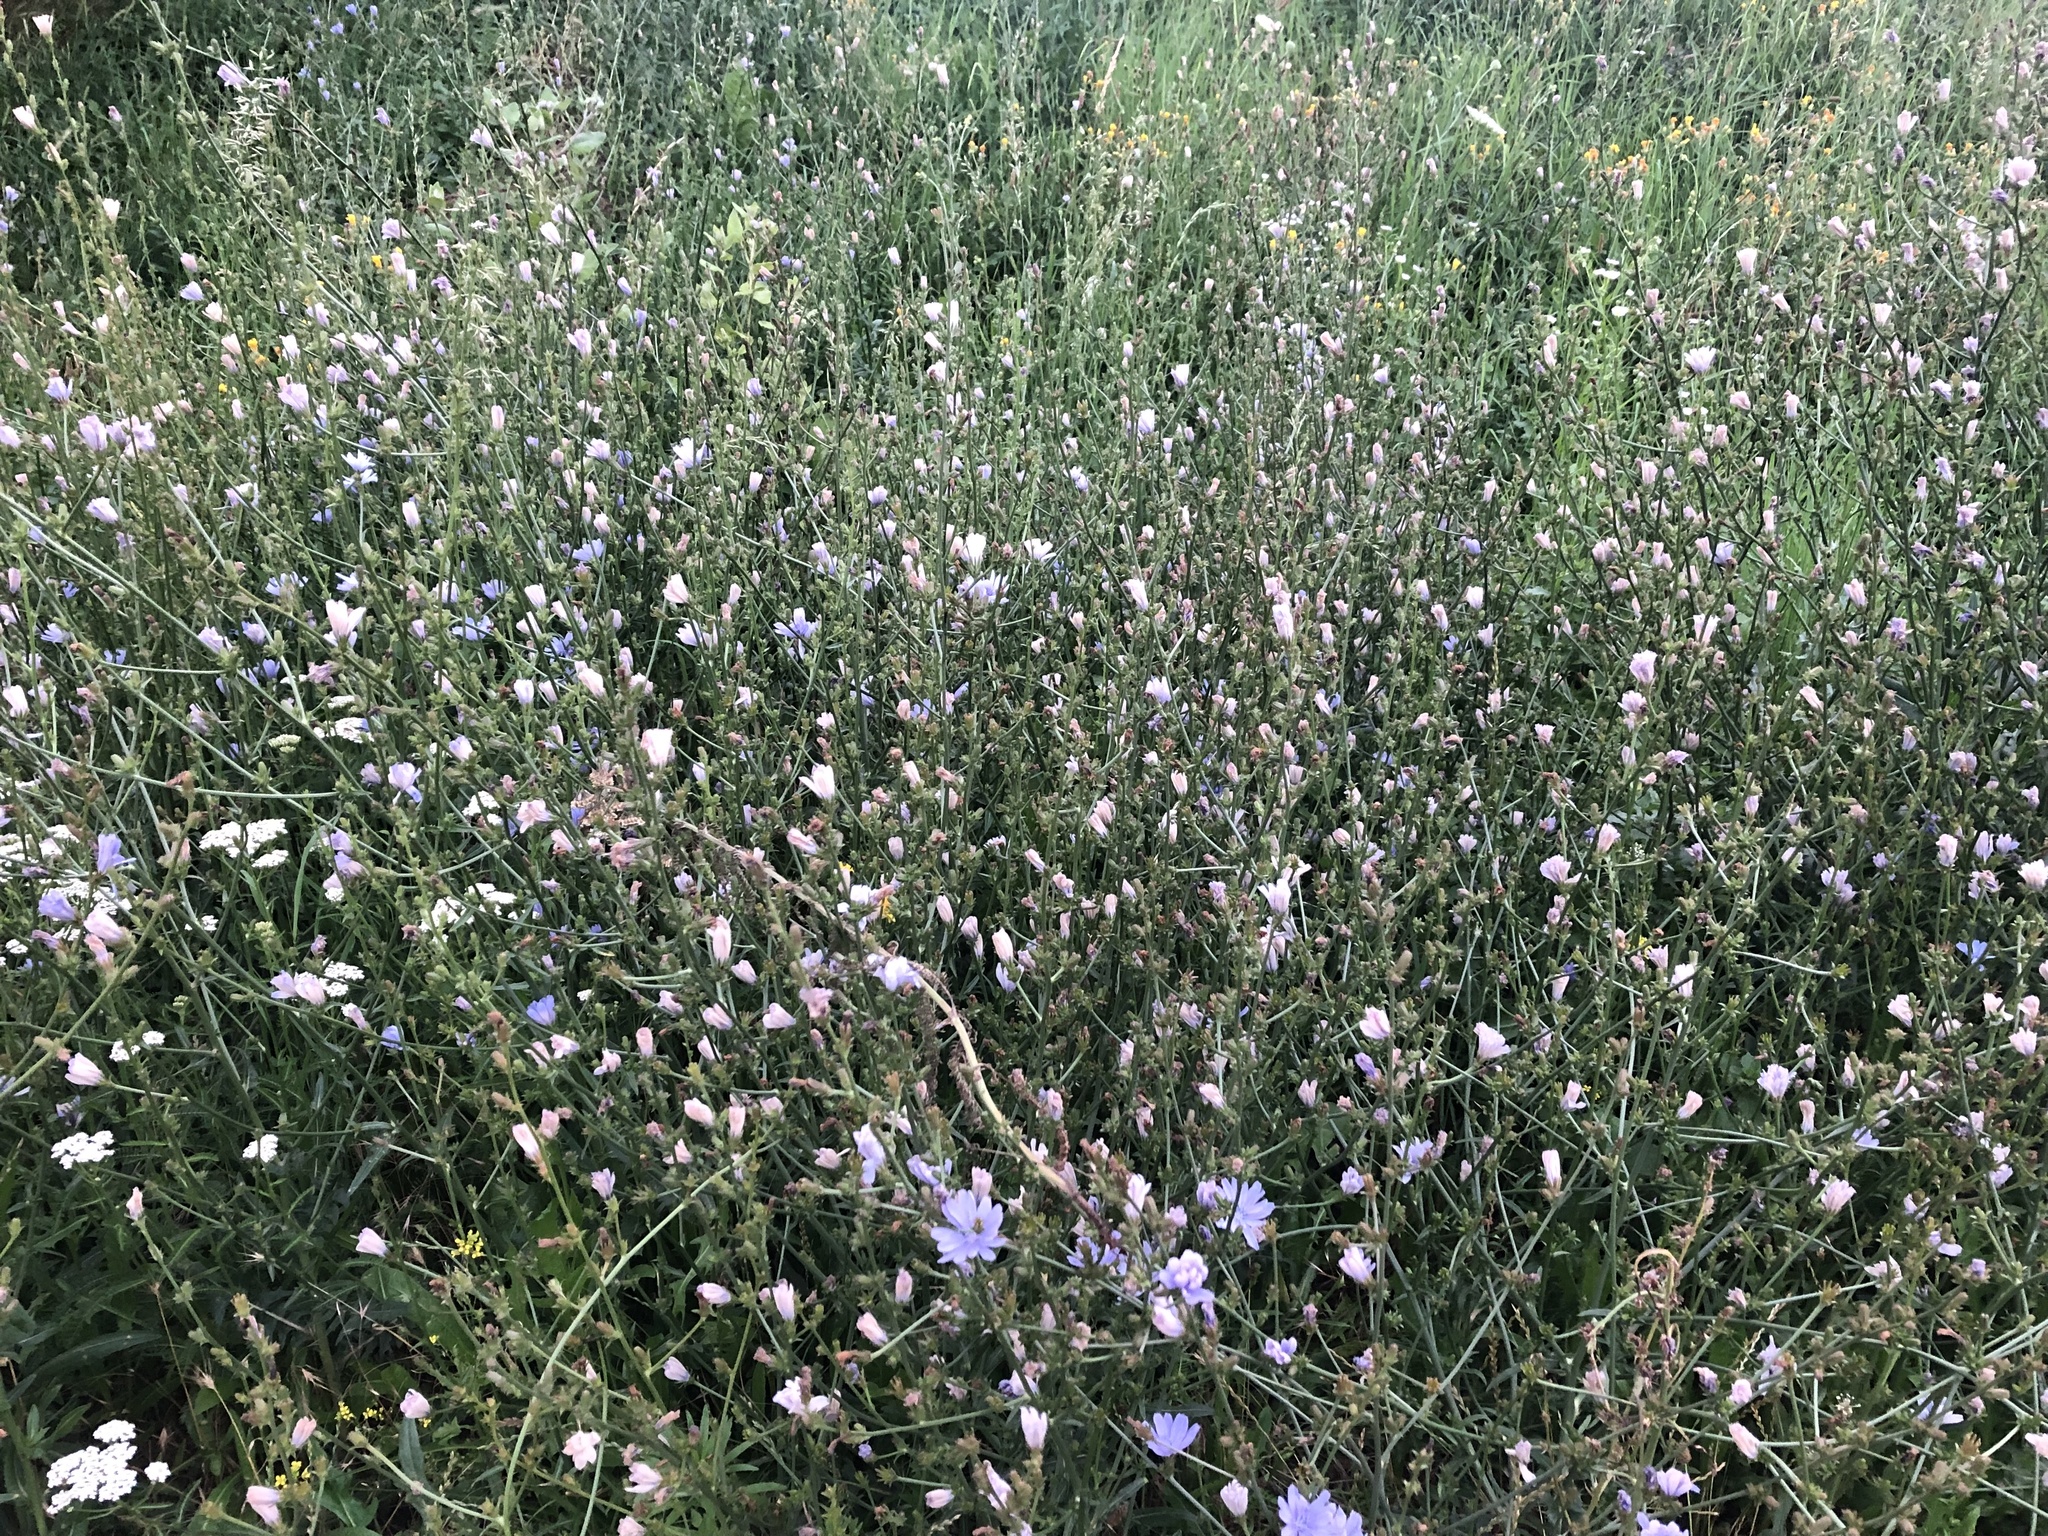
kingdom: Plantae
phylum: Tracheophyta
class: Magnoliopsida
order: Asterales
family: Asteraceae
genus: Cichorium
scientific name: Cichorium intybus
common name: Chicory
